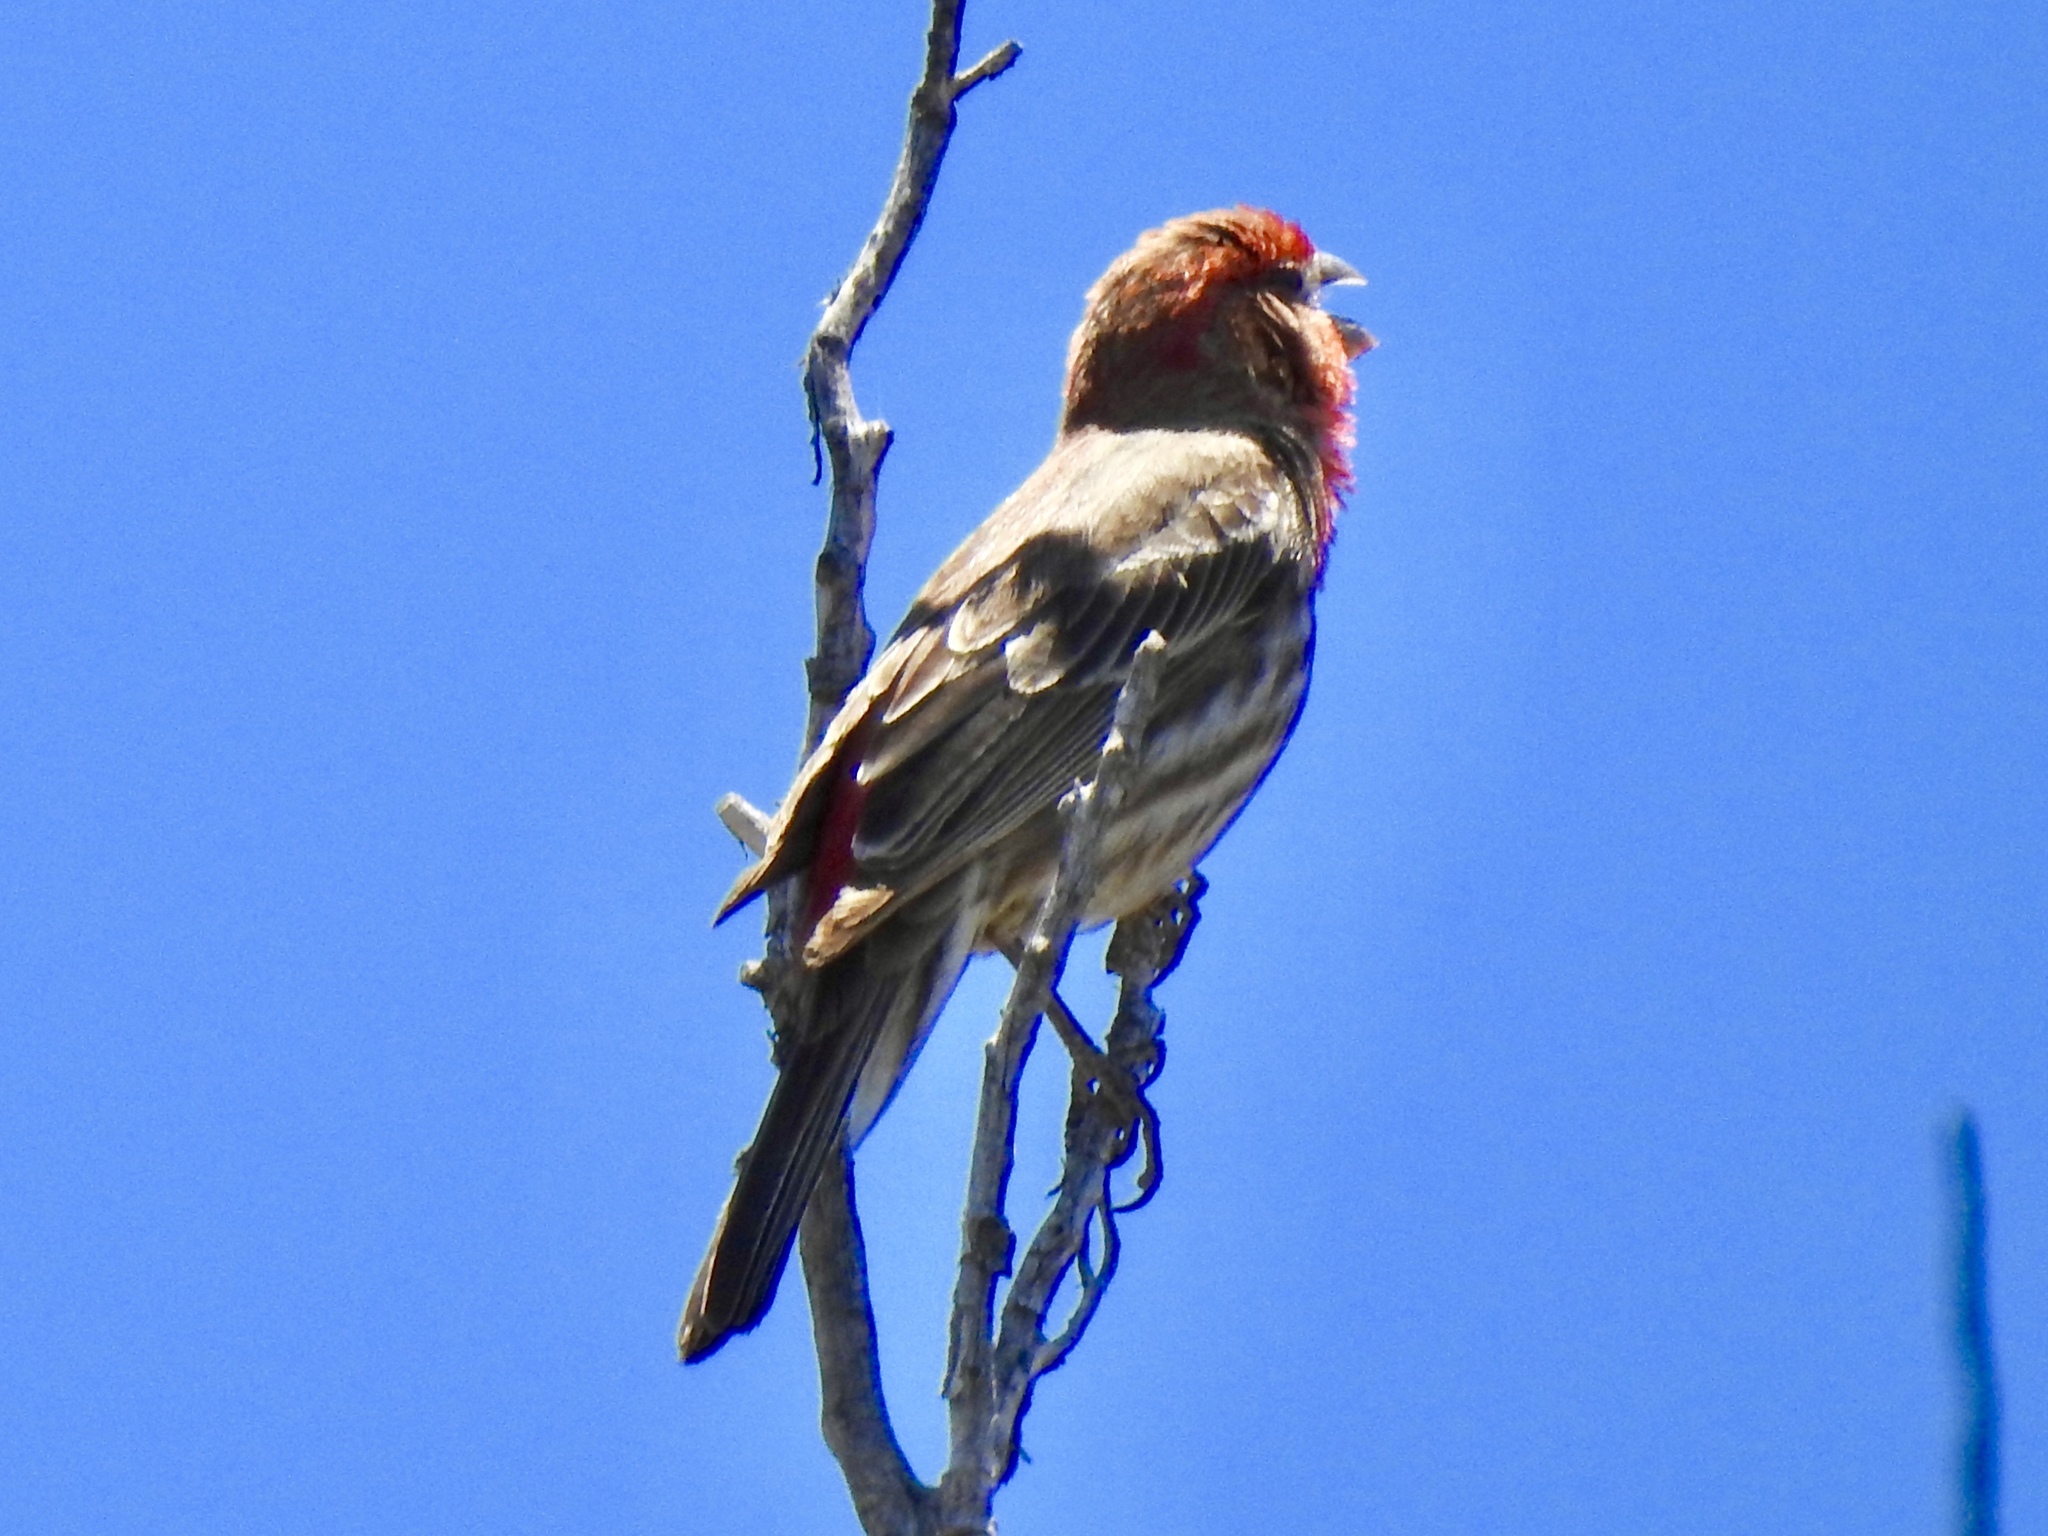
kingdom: Animalia
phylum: Chordata
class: Aves
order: Passeriformes
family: Fringillidae
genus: Haemorhous
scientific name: Haemorhous mexicanus
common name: House finch
